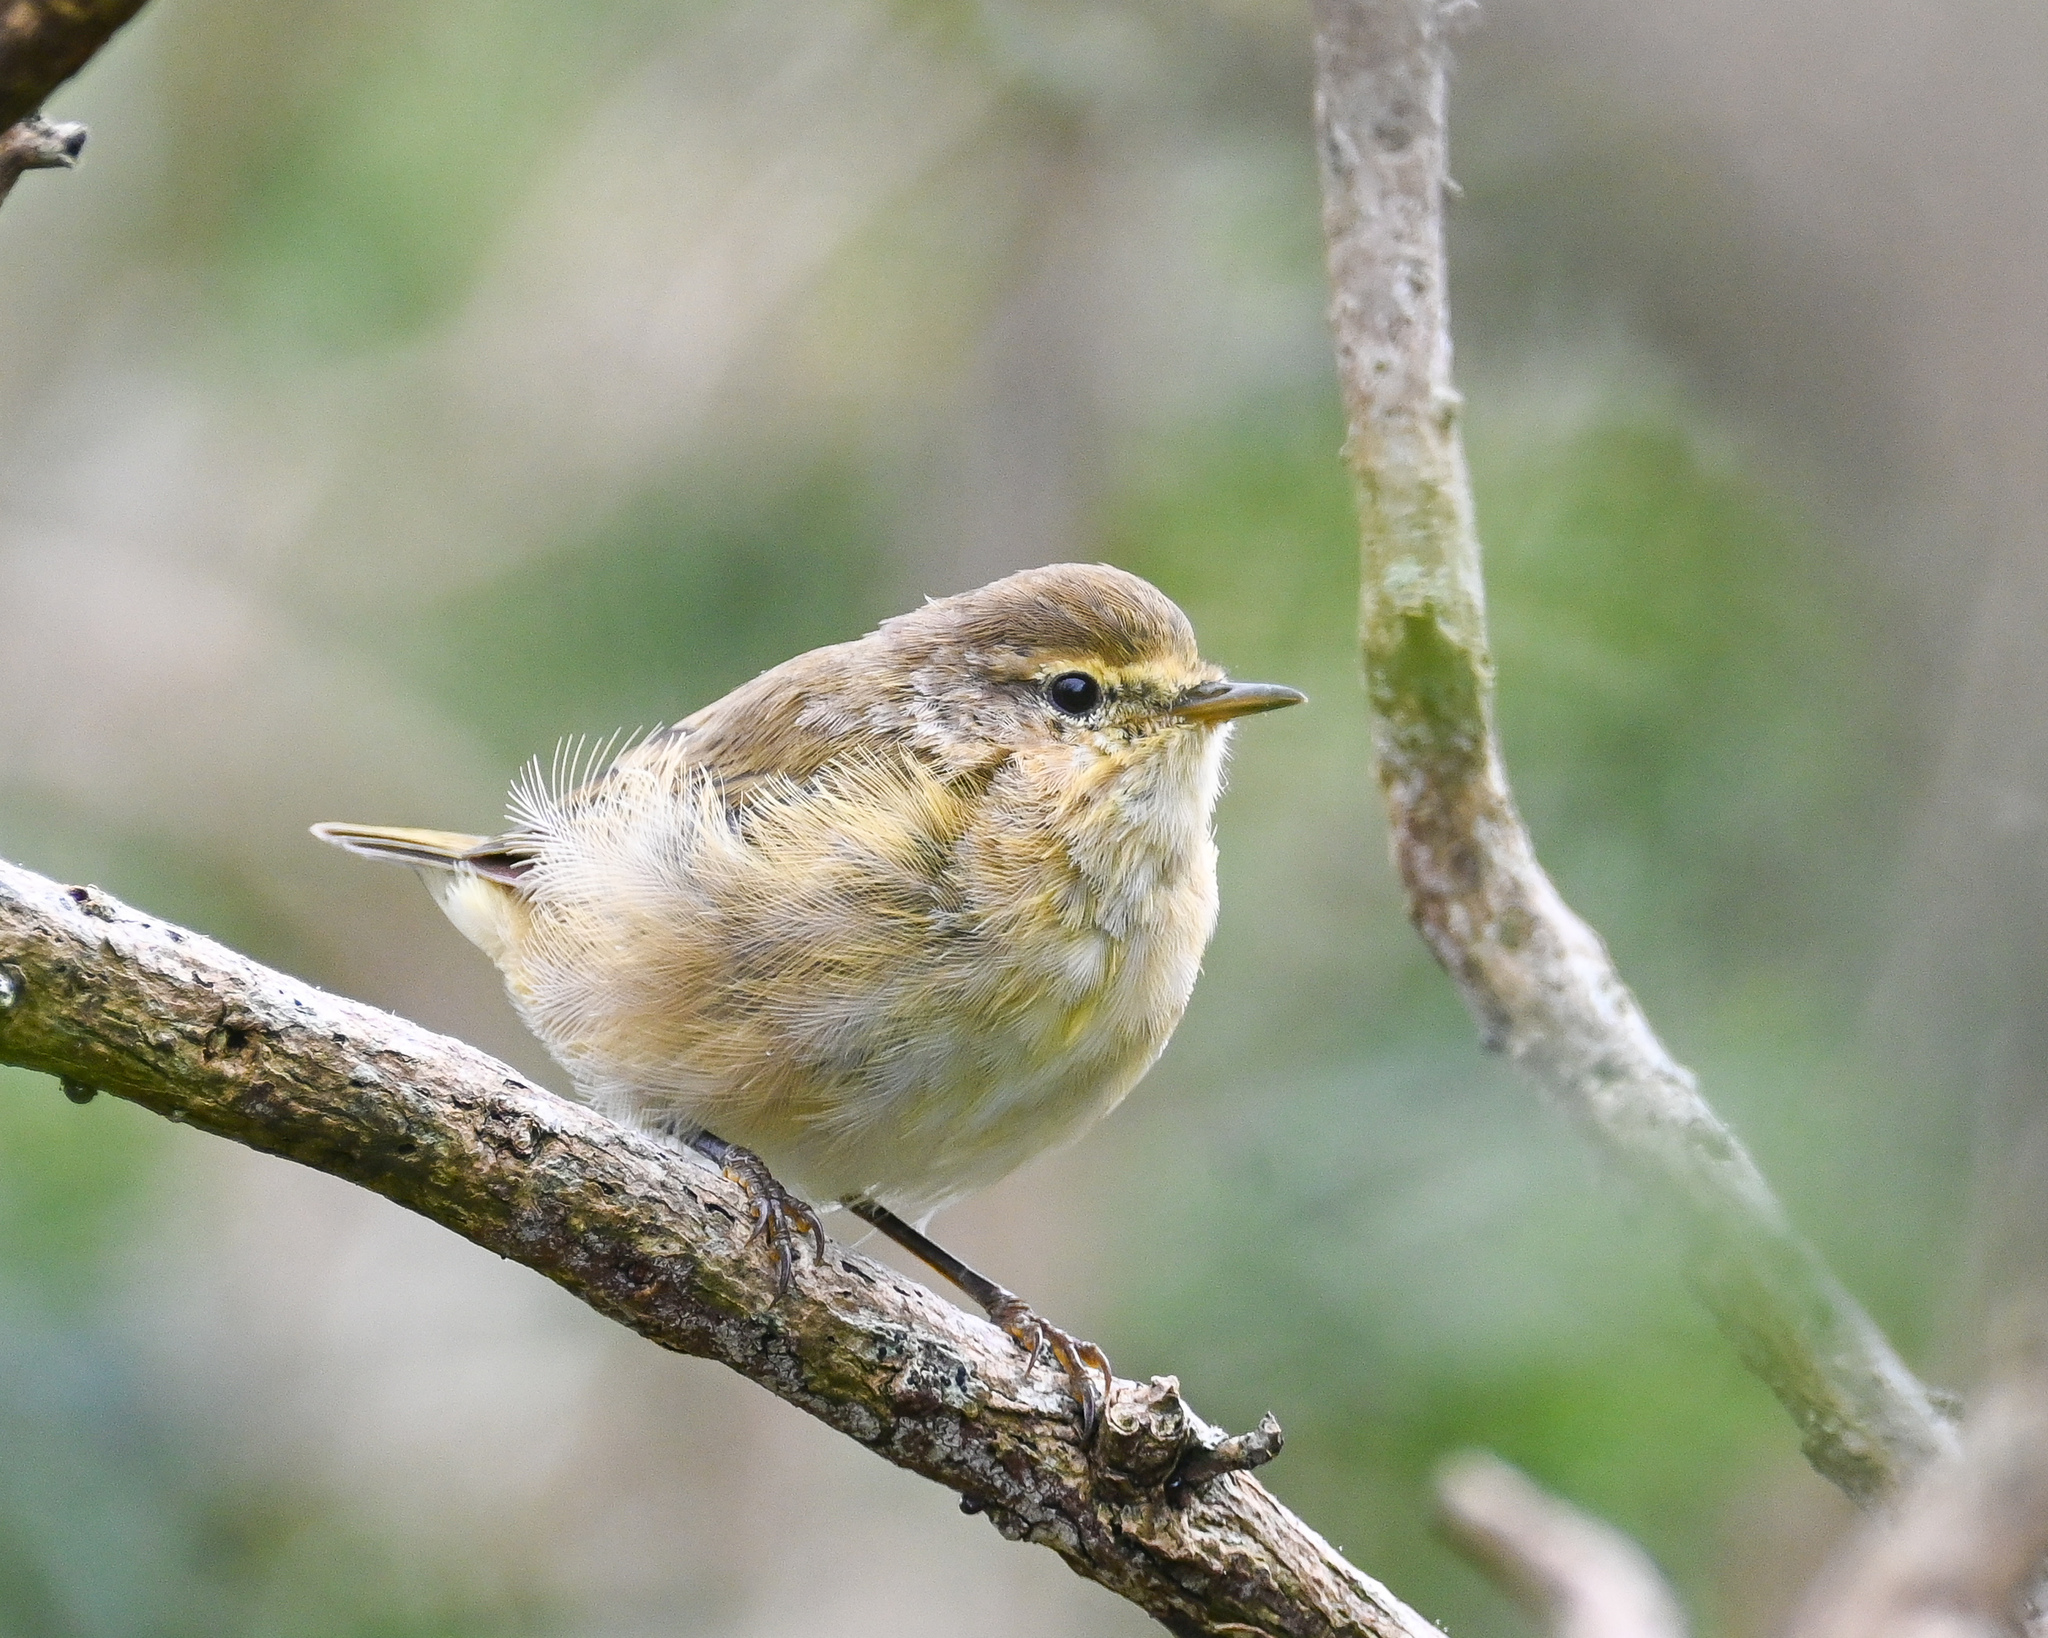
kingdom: Animalia
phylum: Chordata
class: Aves
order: Passeriformes
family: Phylloscopidae
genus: Phylloscopus
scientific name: Phylloscopus collybita
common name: Common chiffchaff
